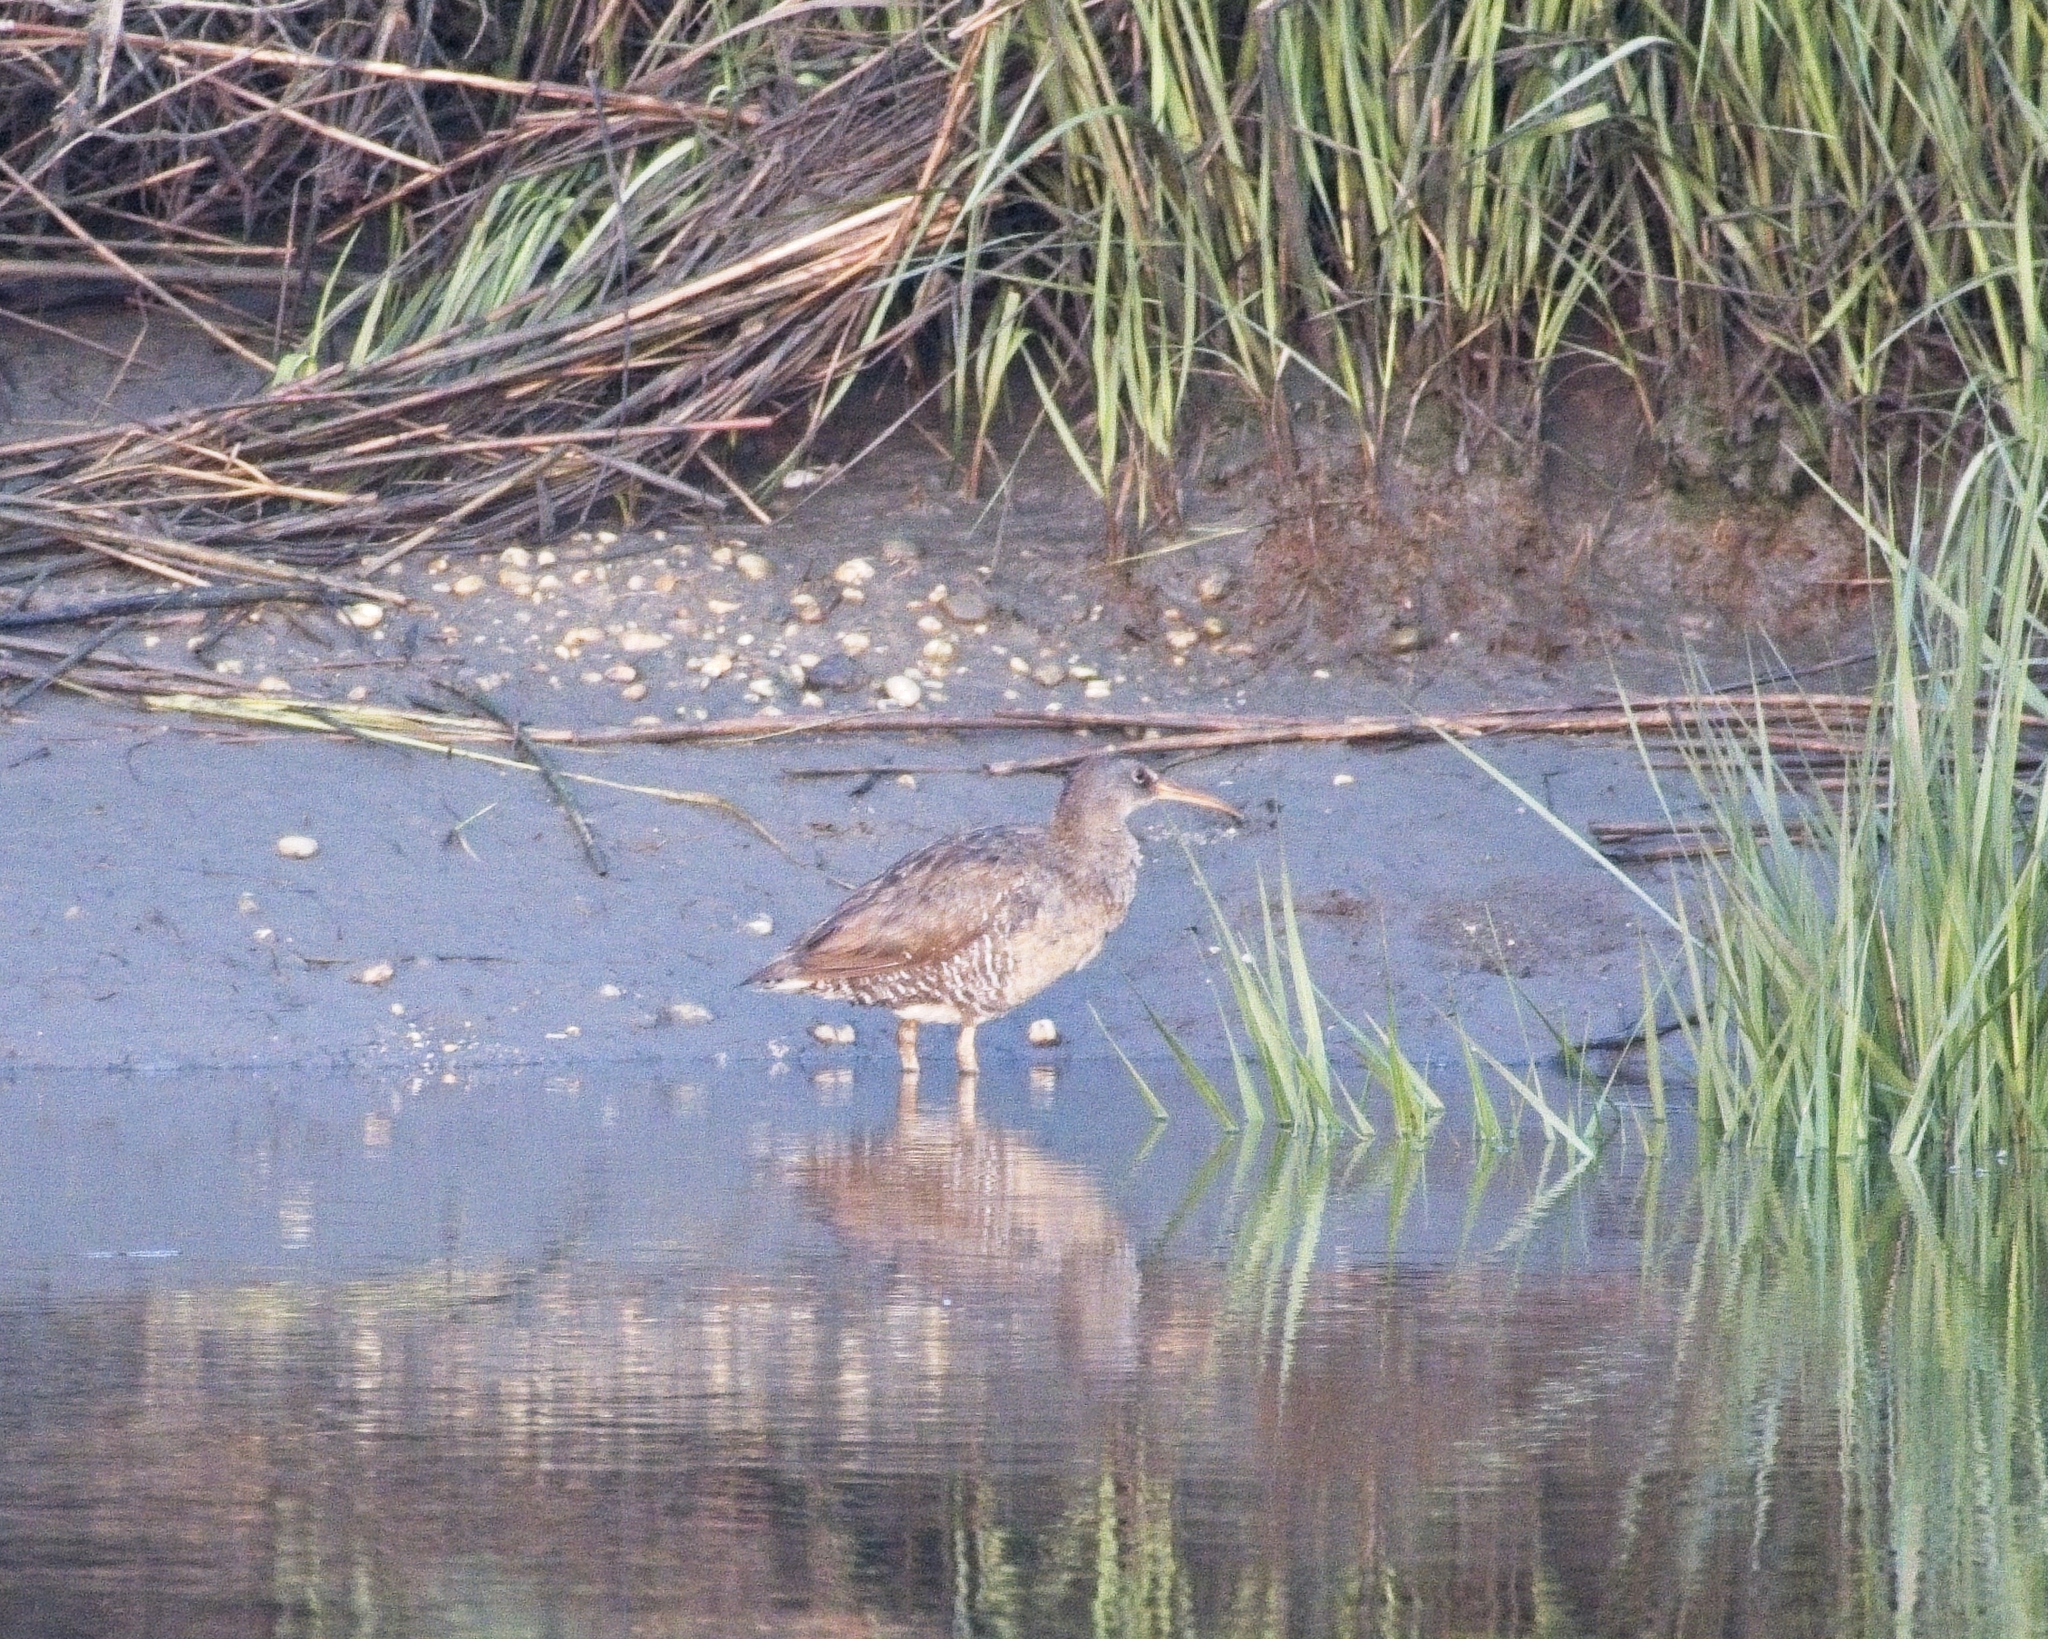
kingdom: Animalia
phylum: Chordata
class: Aves
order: Gruiformes
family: Rallidae
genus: Rallus
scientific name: Rallus crepitans
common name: Clapper rail
